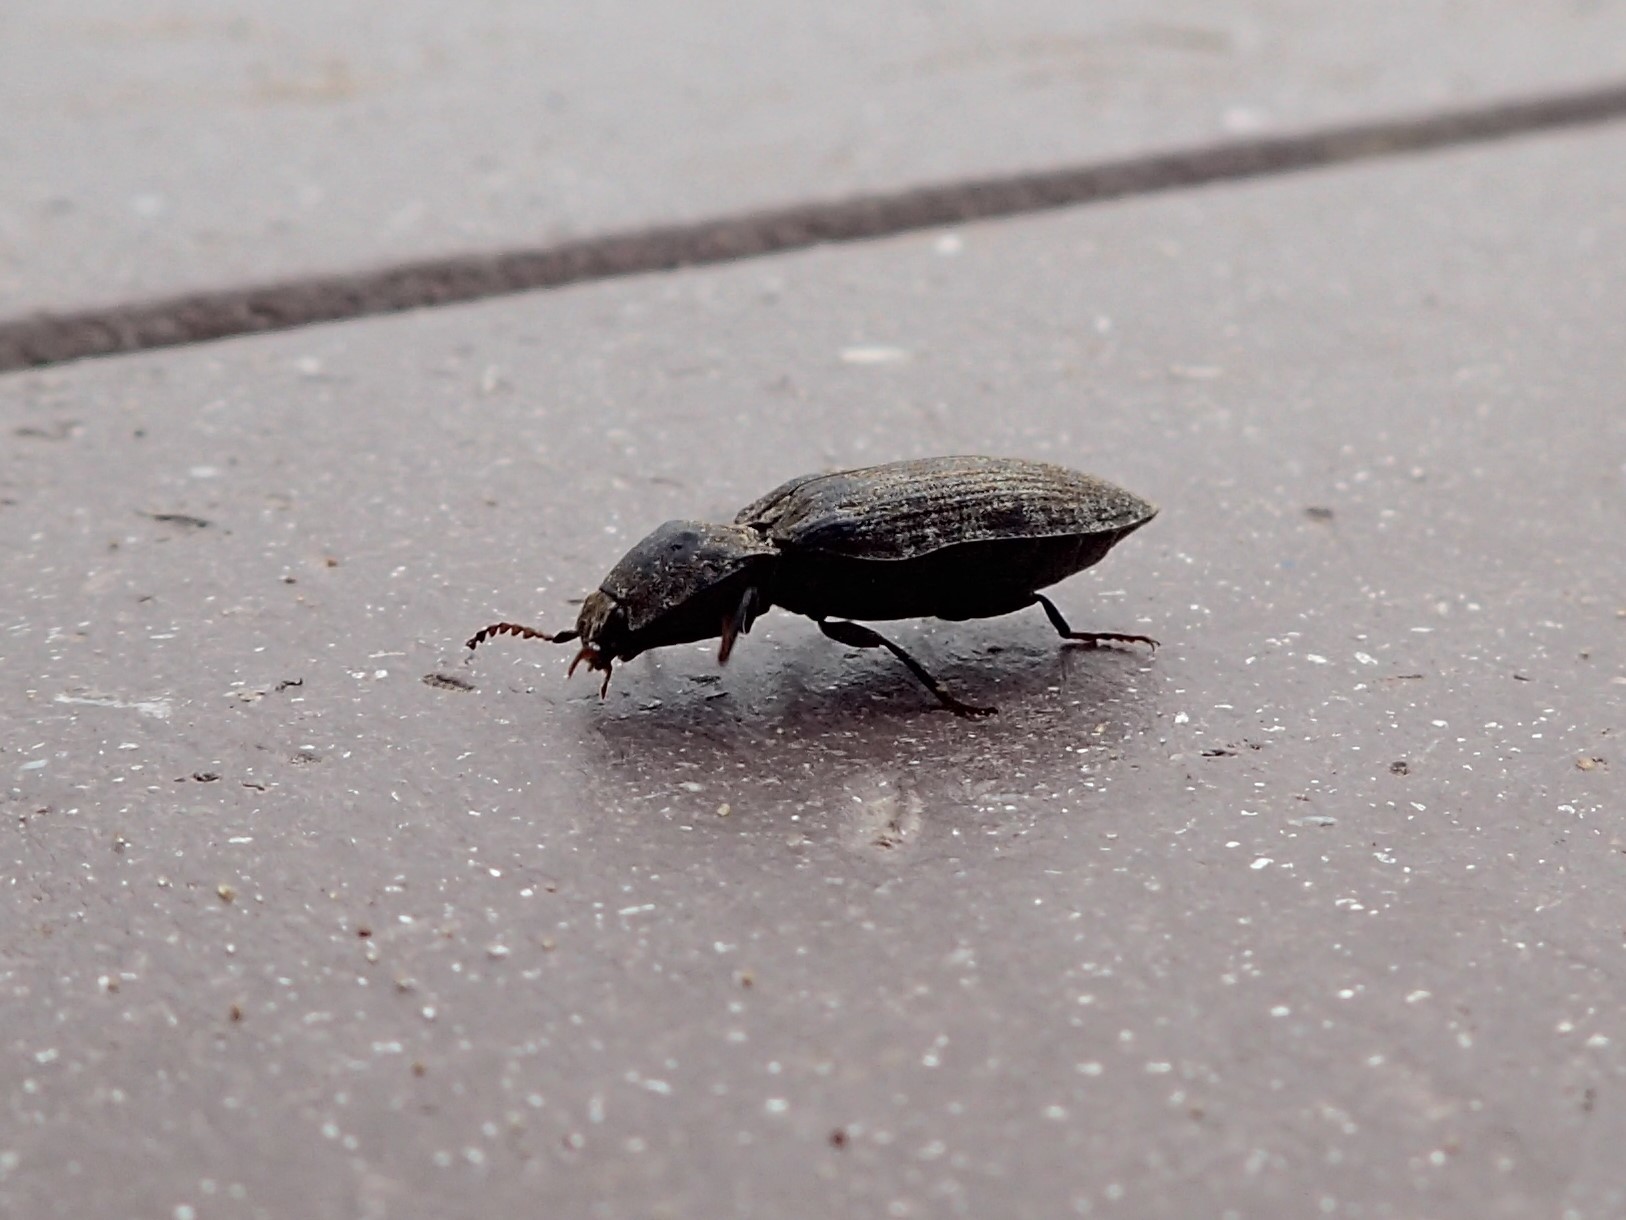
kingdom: Animalia
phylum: Arthropoda
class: Insecta
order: Coleoptera
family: Elateridae
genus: Agrypnus
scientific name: Agrypnus murinus
